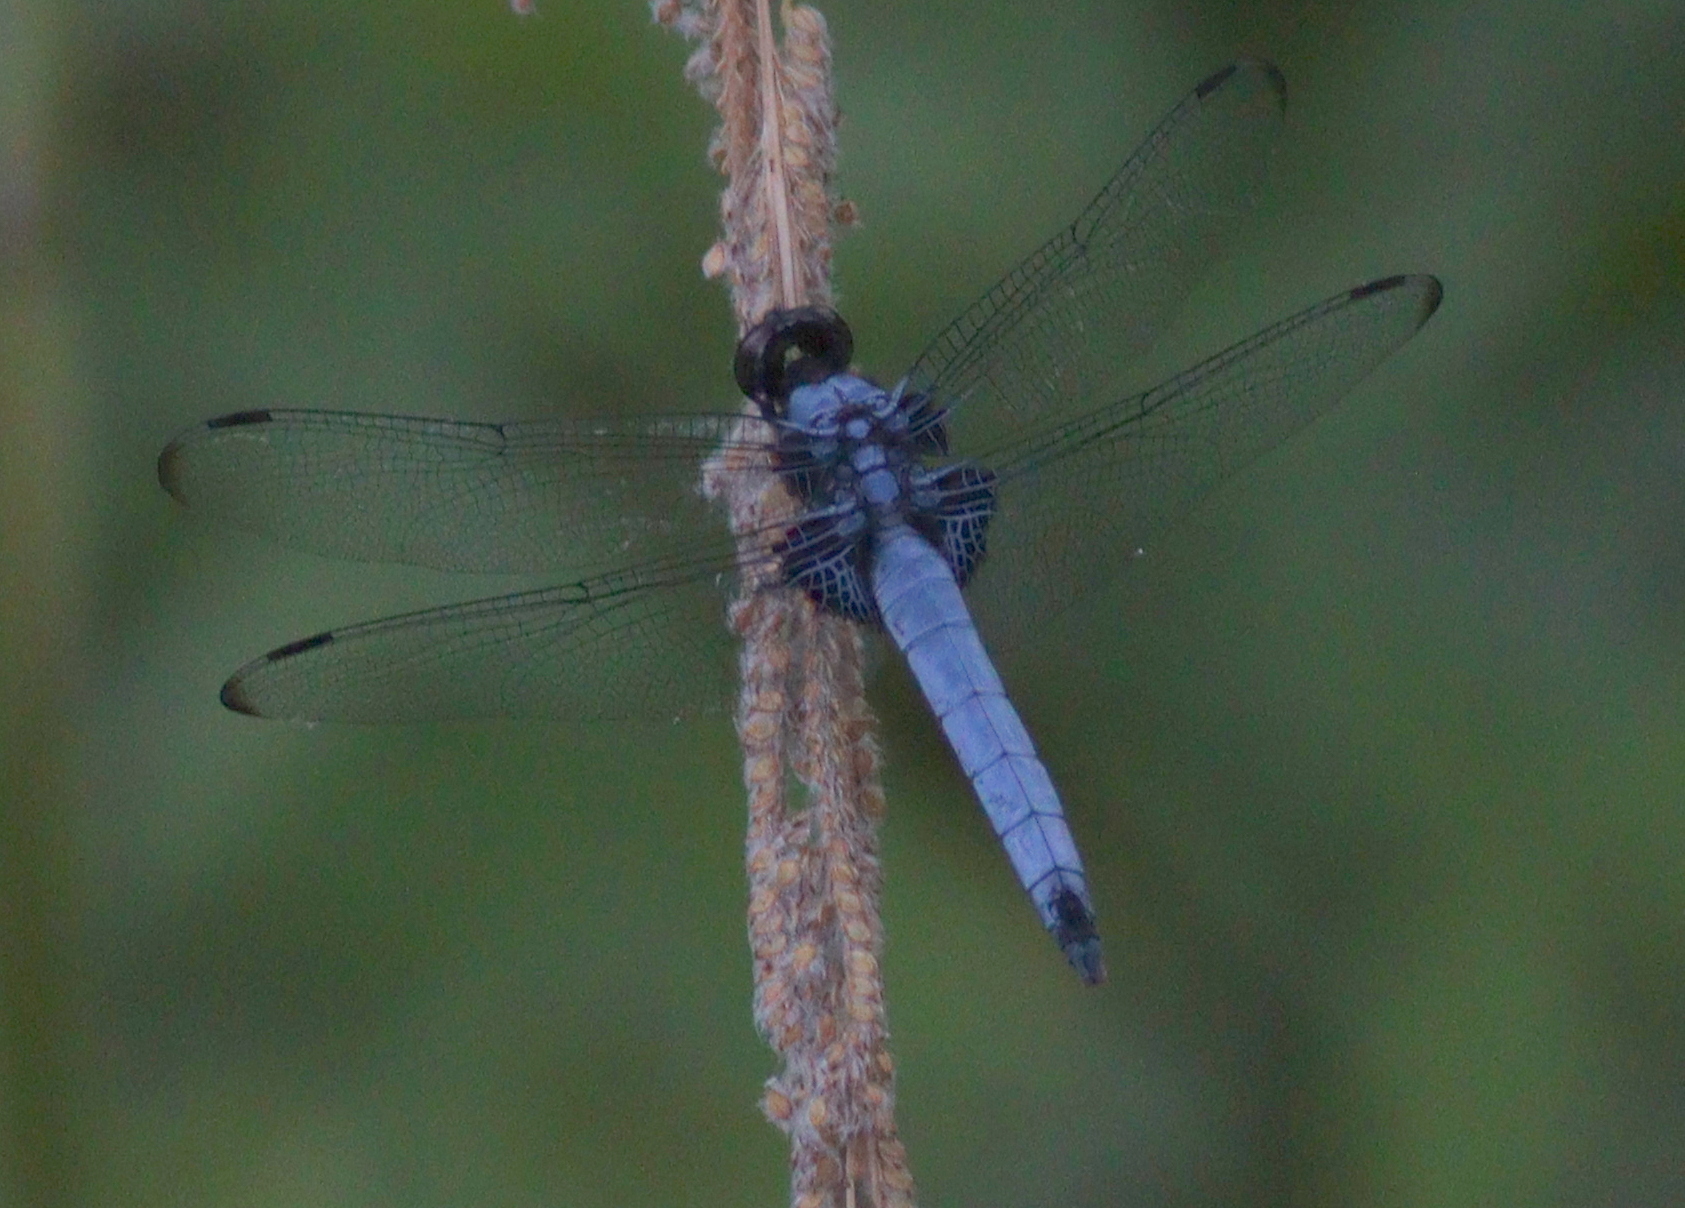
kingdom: Animalia
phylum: Arthropoda
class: Insecta
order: Odonata
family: Libellulidae
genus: Orthetrum
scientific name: Orthetrum melania
